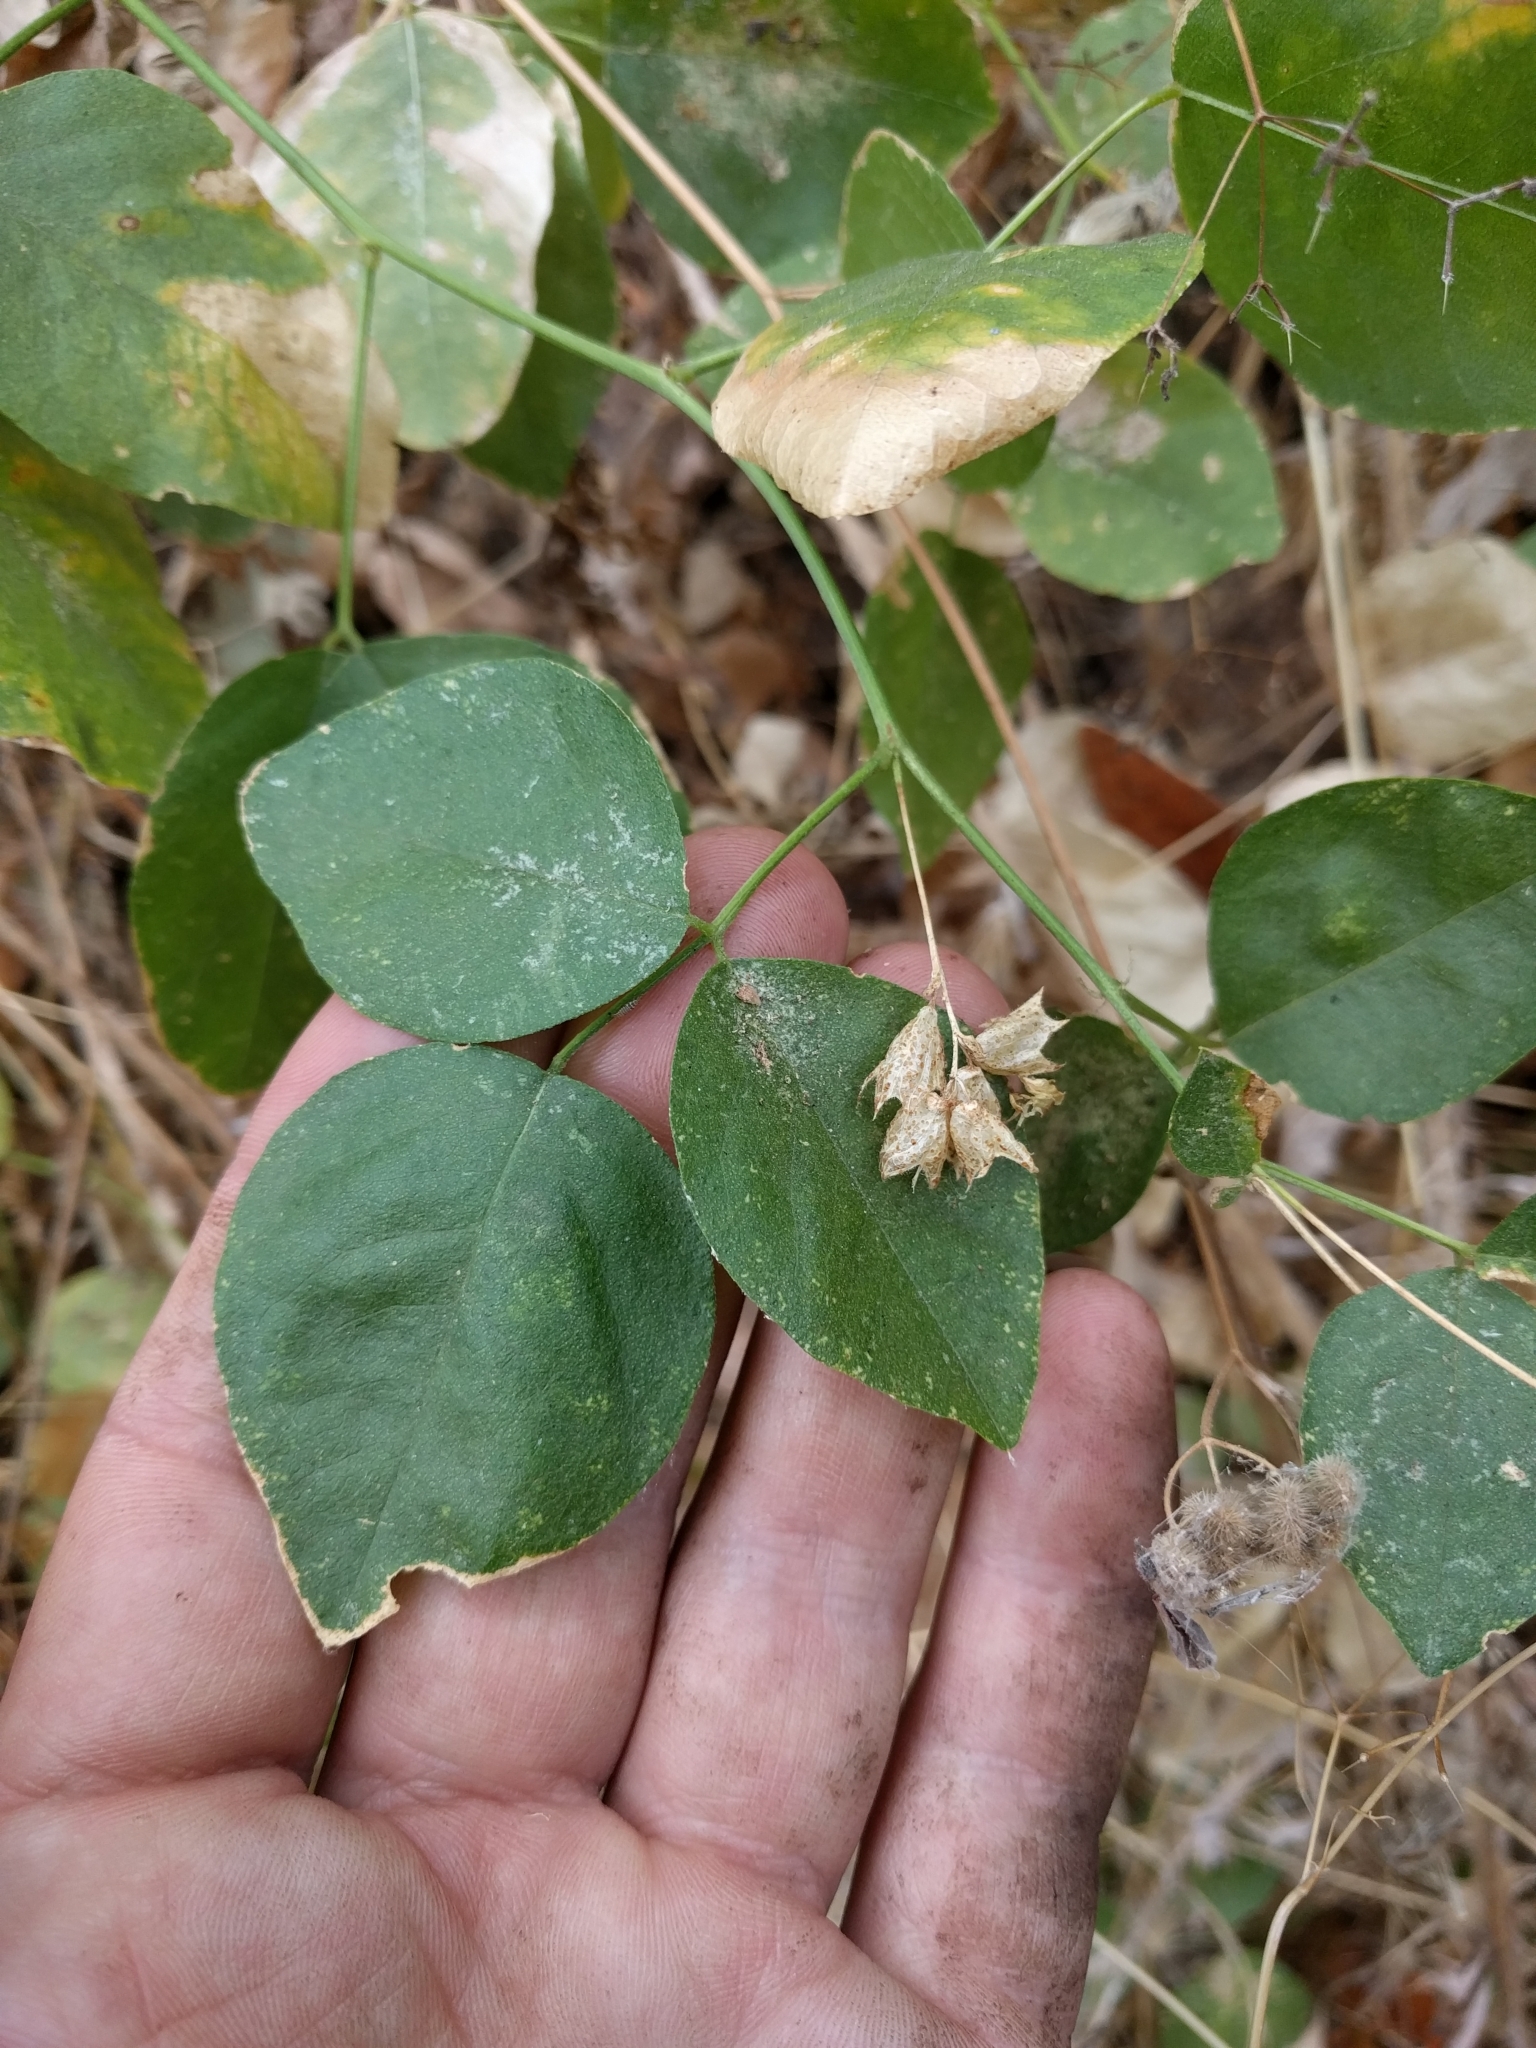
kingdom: Plantae
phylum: Tracheophyta
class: Magnoliopsida
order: Fabales
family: Fabaceae
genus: Rupertia
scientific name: Rupertia physodes
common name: California-tea
